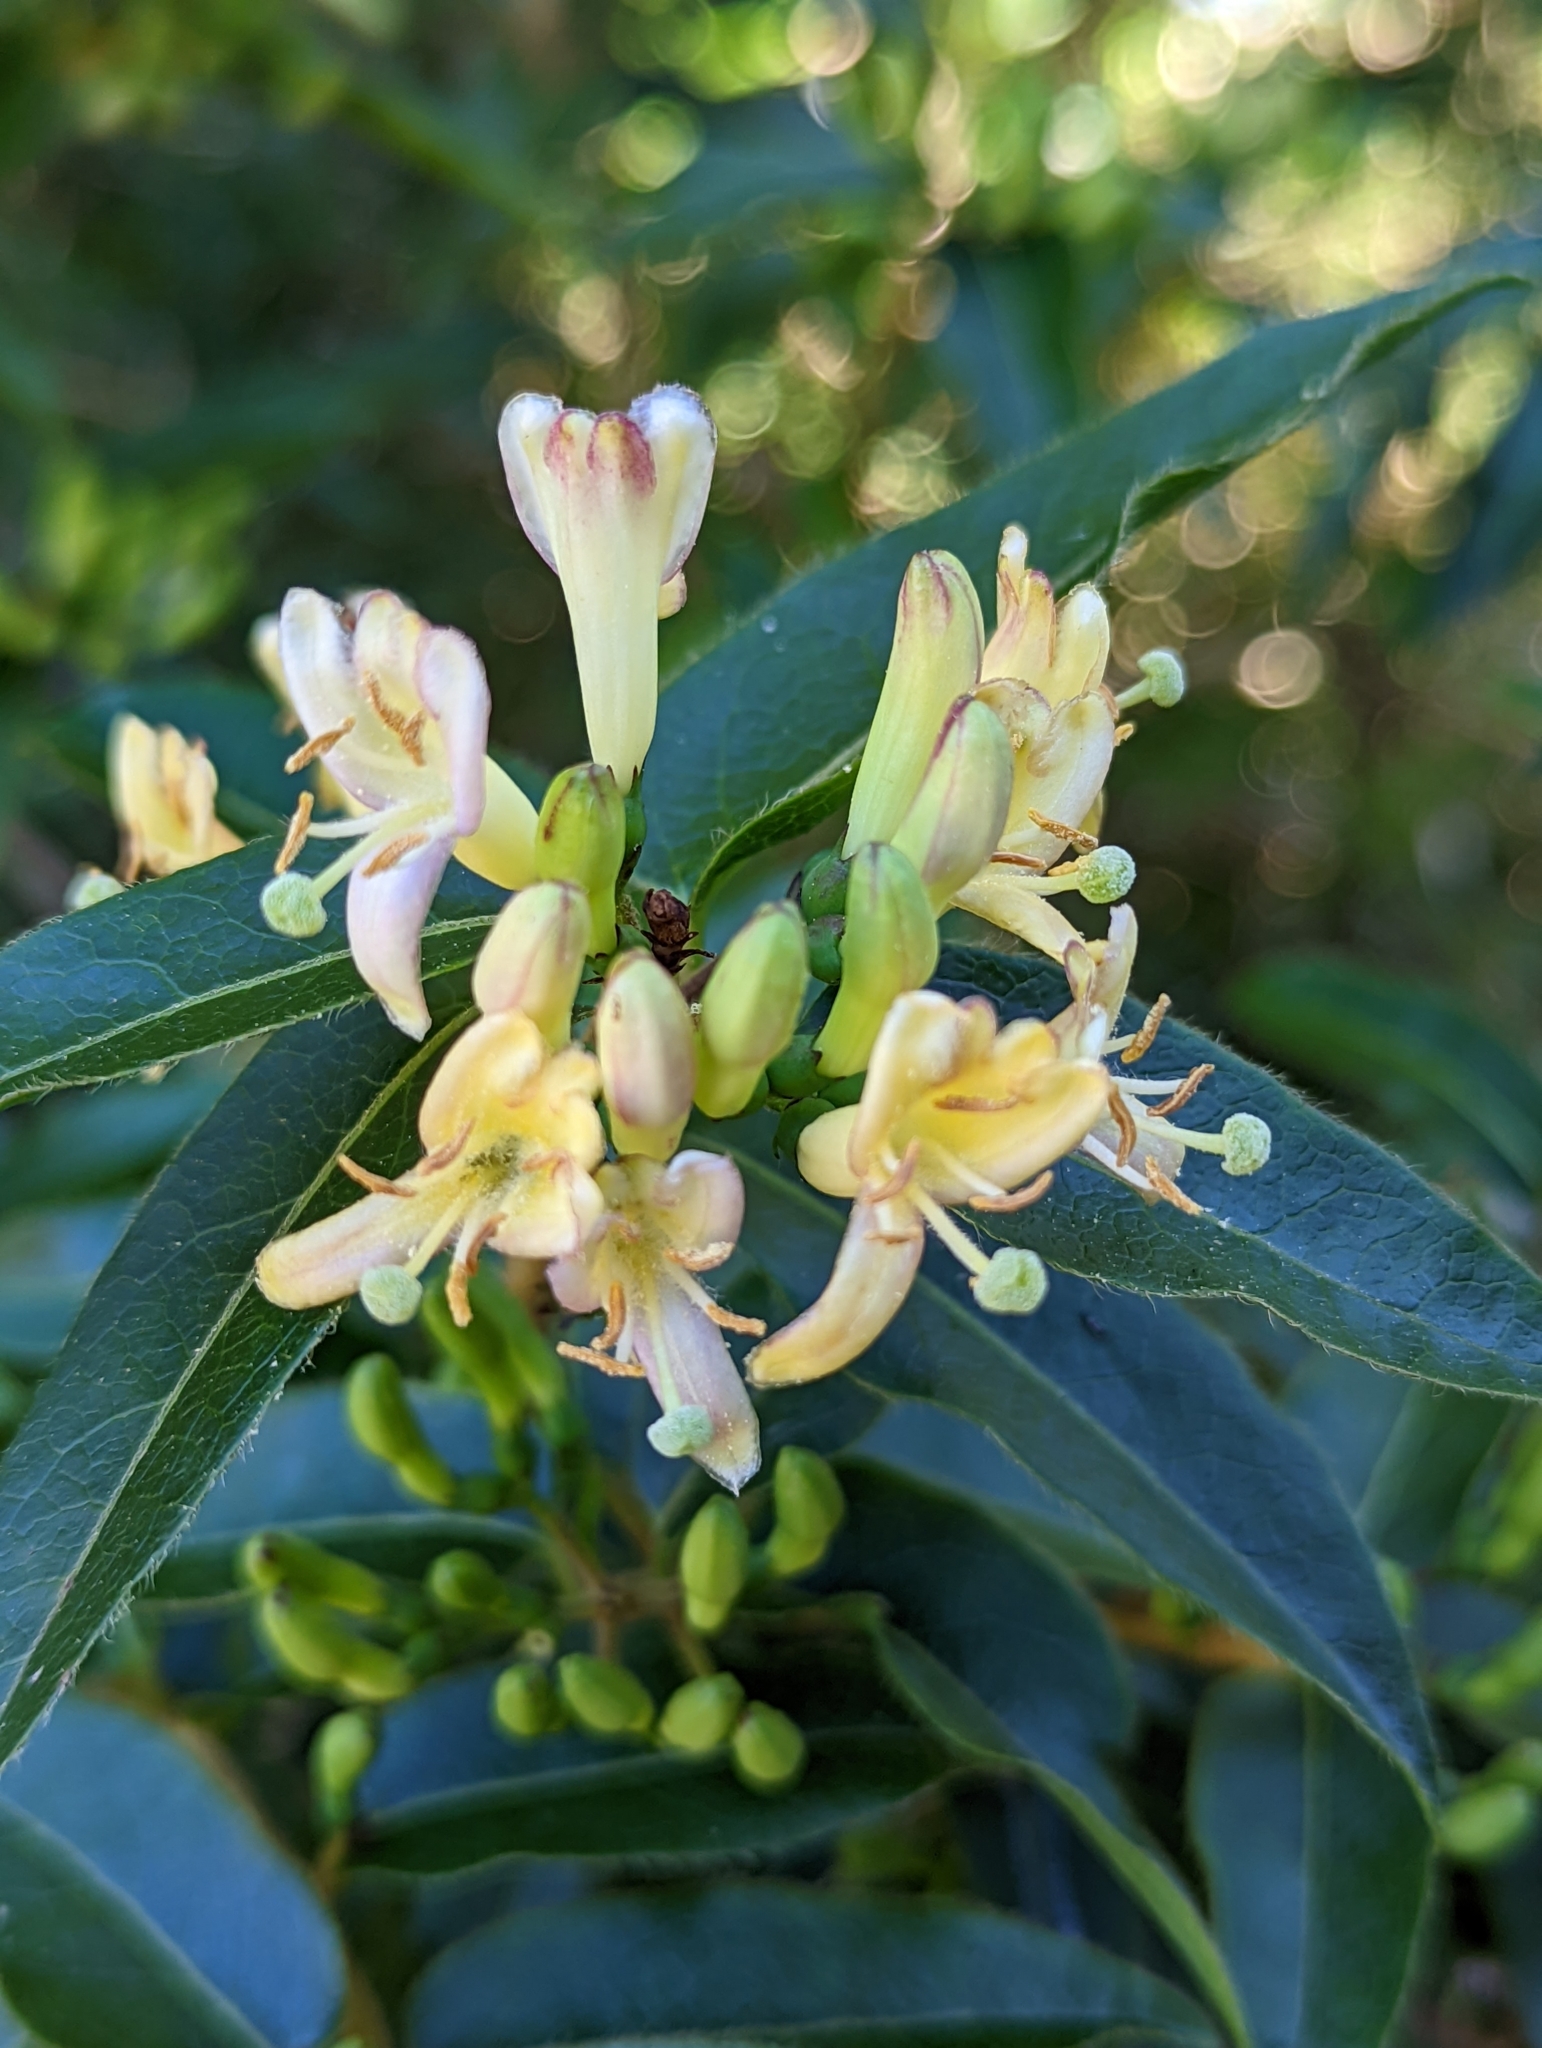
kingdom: Plantae
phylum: Tracheophyta
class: Magnoliopsida
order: Dipsacales
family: Caprifoliaceae
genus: Lonicera
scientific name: Lonicera acuminata
